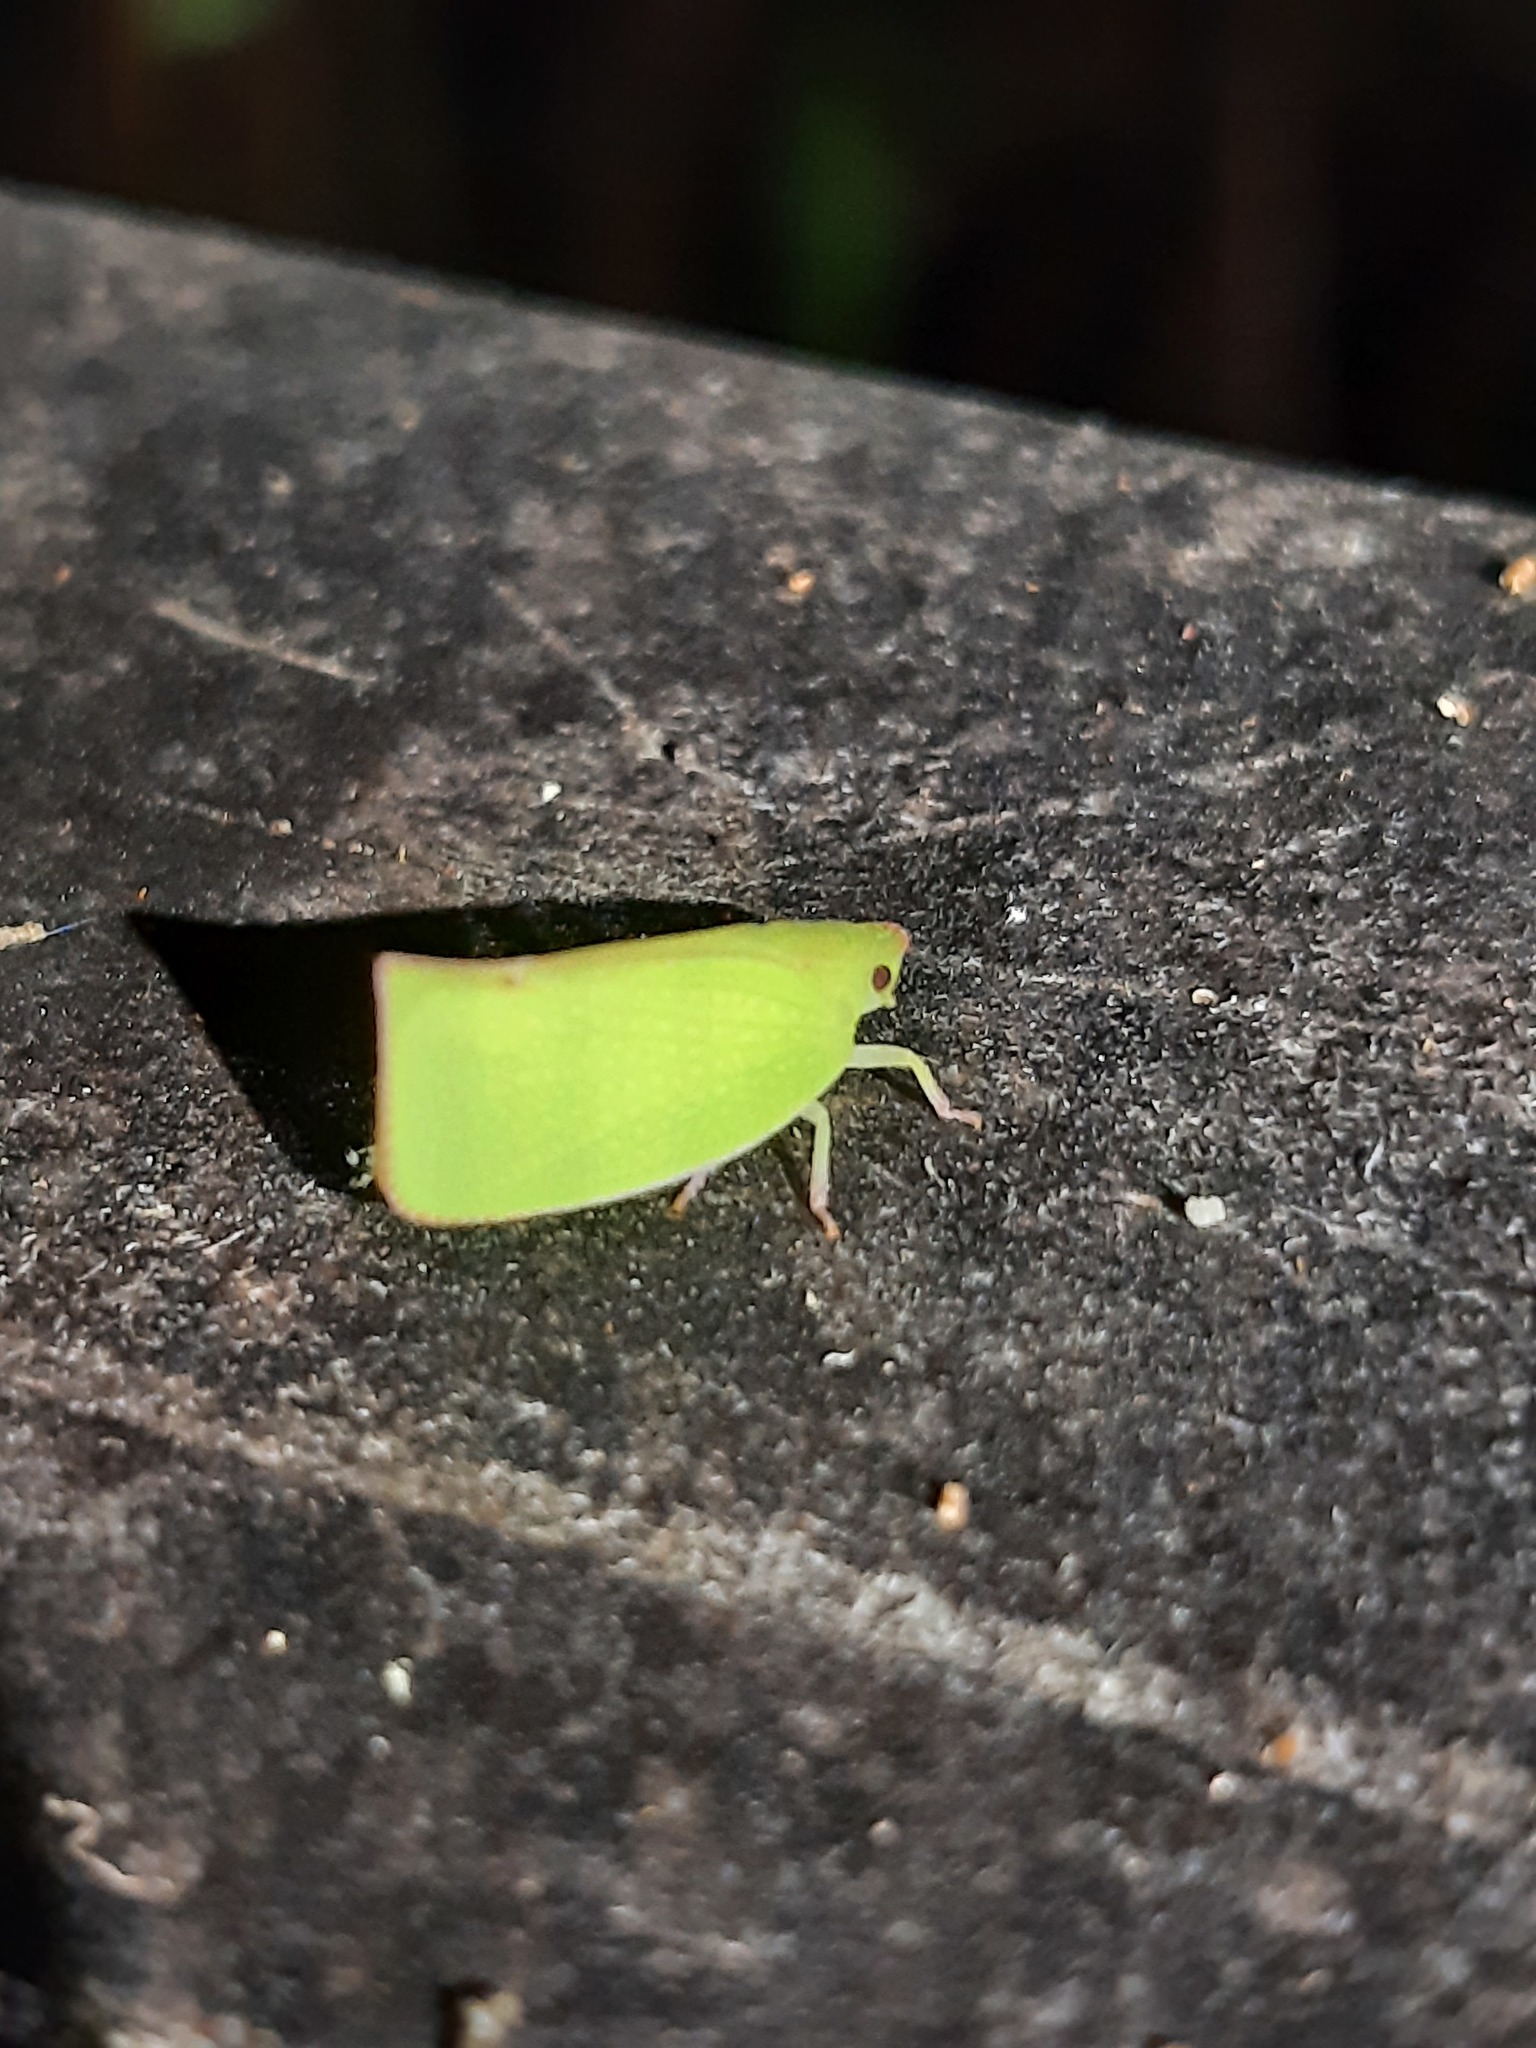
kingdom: Animalia
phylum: Arthropoda
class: Insecta
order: Hemiptera
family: Flatidae
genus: Siphanta
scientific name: Siphanta acuta
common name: Torpedo bug
